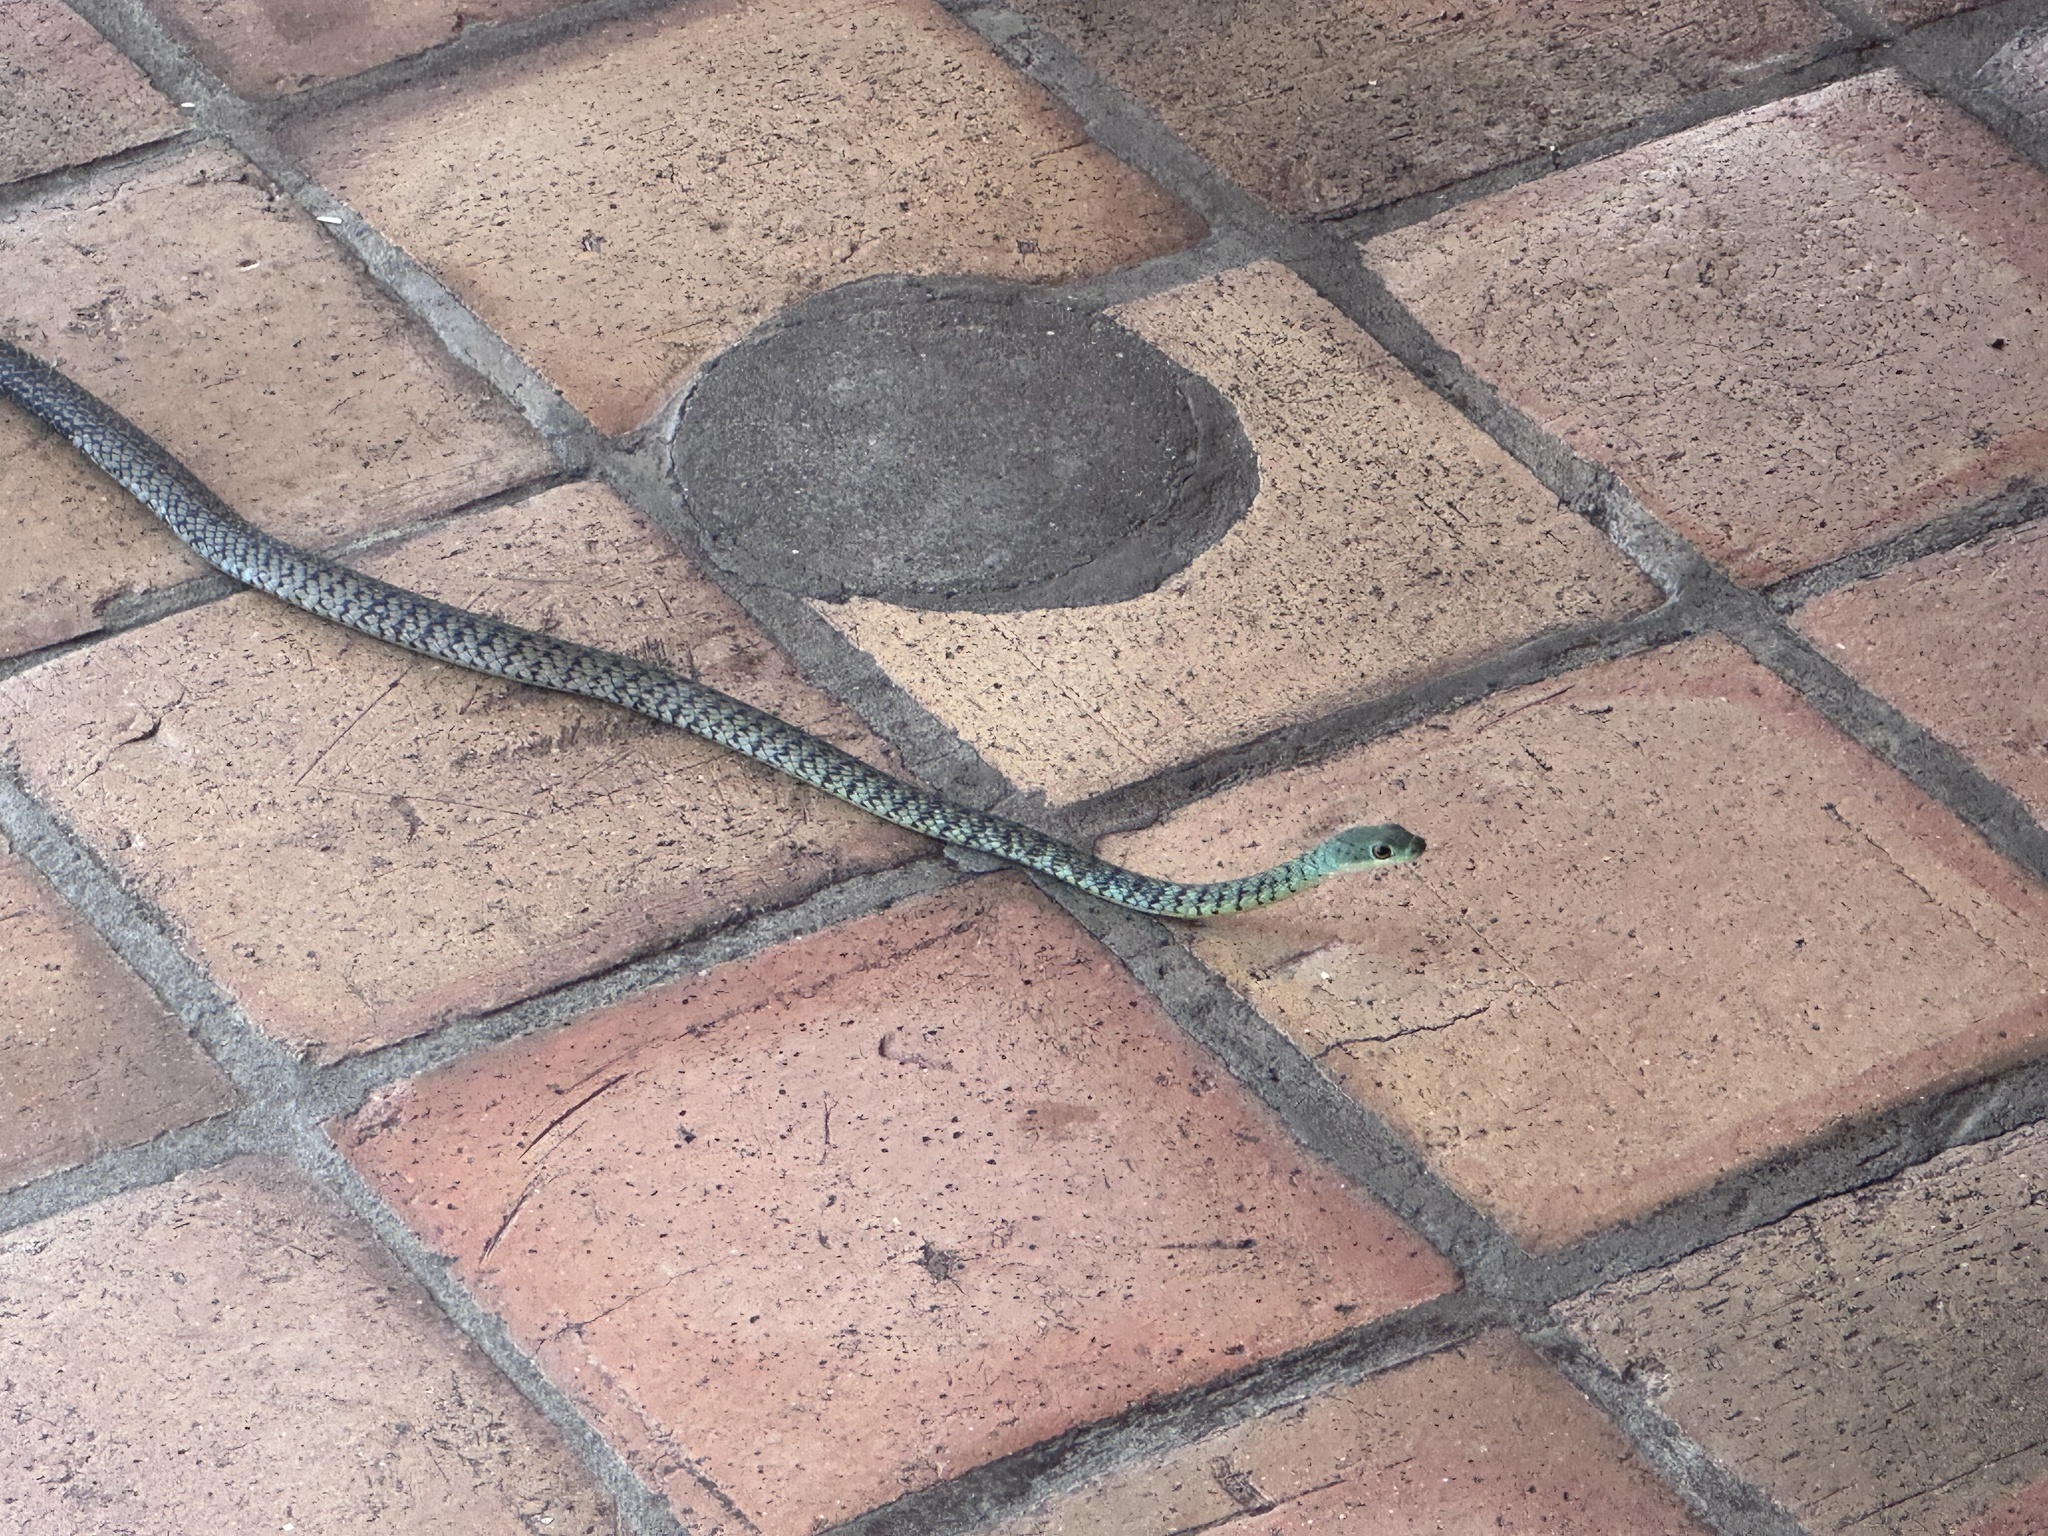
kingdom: Animalia
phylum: Chordata
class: Squamata
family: Colubridae
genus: Philothamnus
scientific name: Philothamnus semivariegatus
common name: Spotted bush snake
